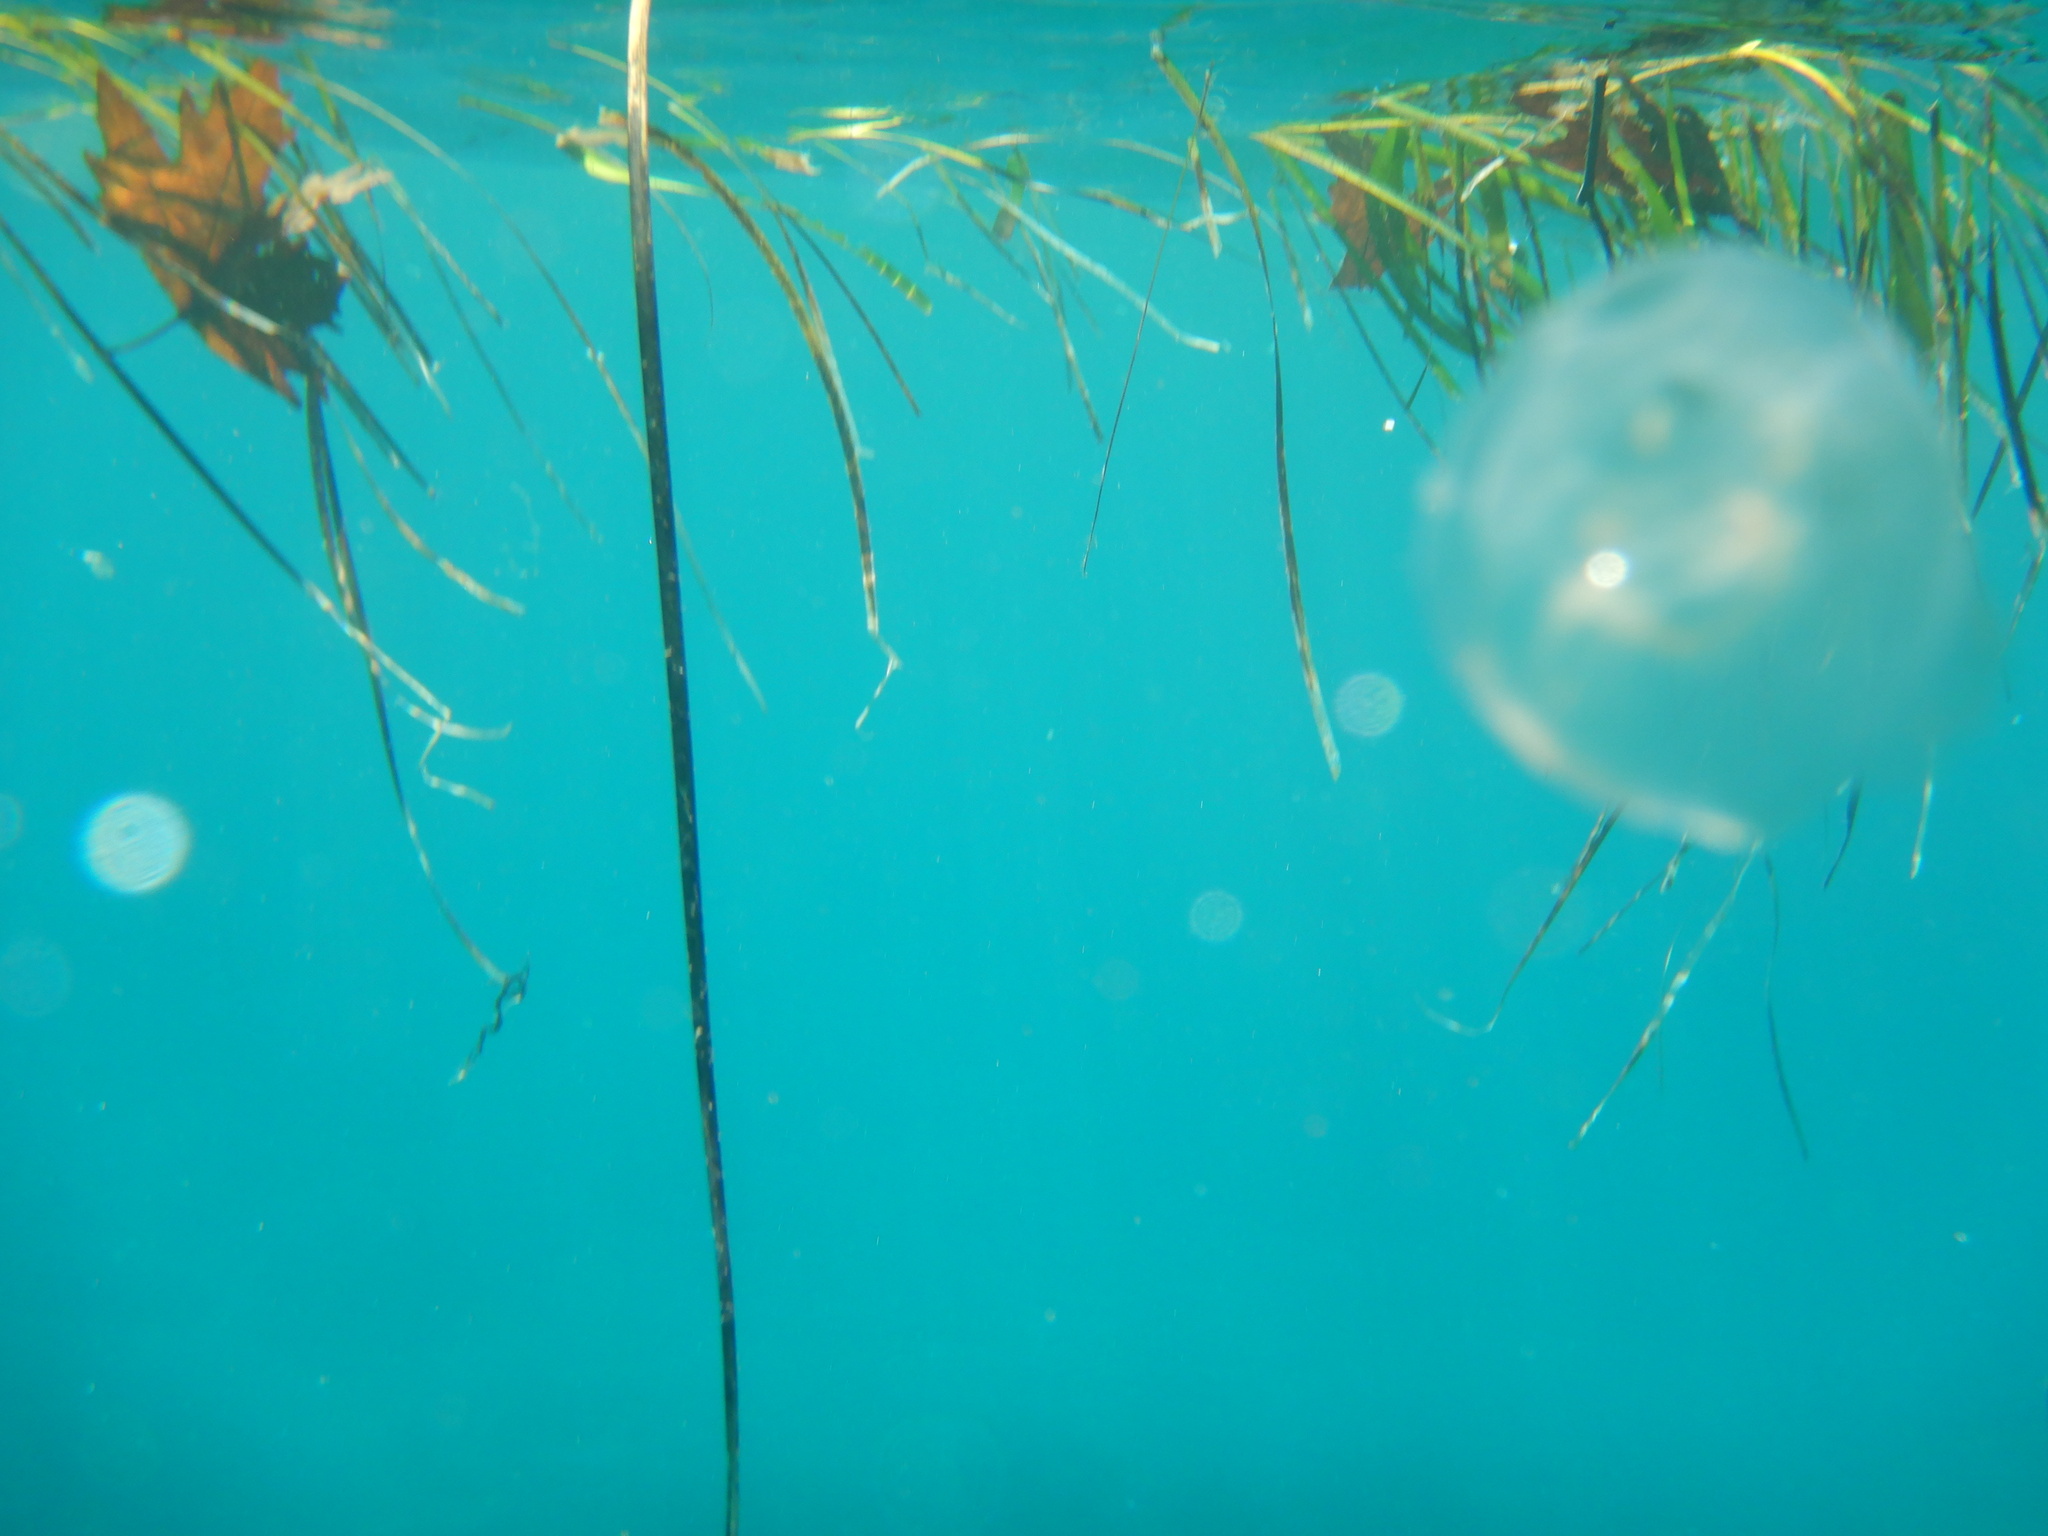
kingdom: Animalia
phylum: Cnidaria
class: Scyphozoa
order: Semaeostomeae
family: Ulmaridae
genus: Aurelia
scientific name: Aurelia aurita
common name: Moon jellyfish
